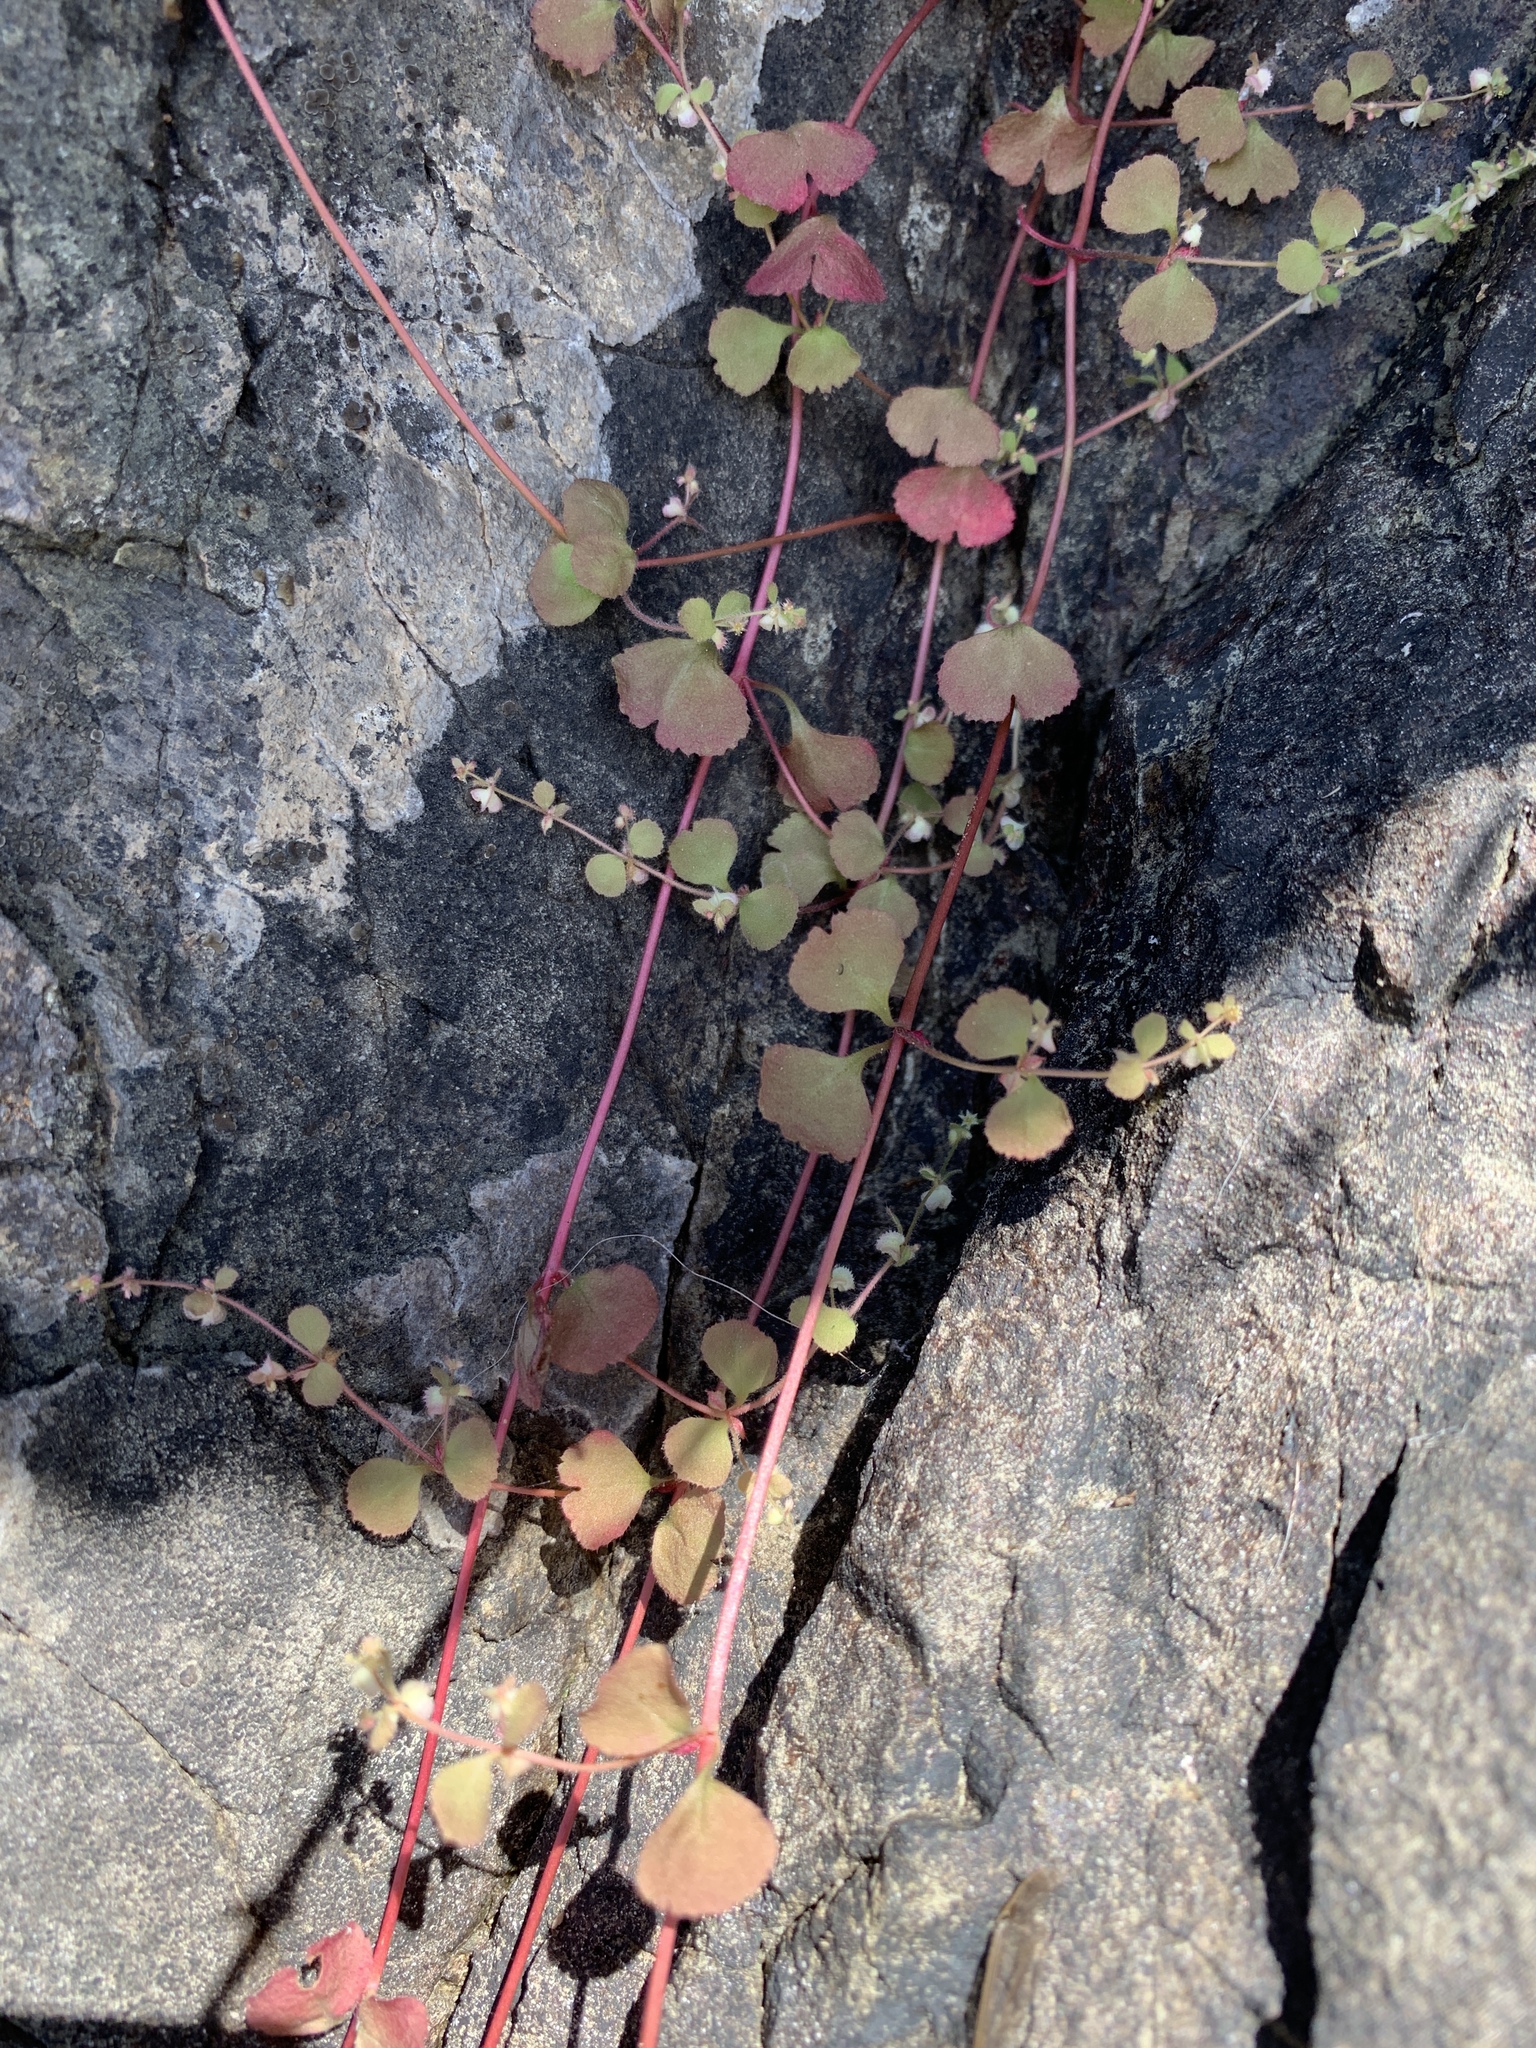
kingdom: Plantae
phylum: Tracheophyta
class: Magnoliopsida
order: Caryophyllales
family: Polygonaceae
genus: Pterostegia
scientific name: Pterostegia drymarioides
